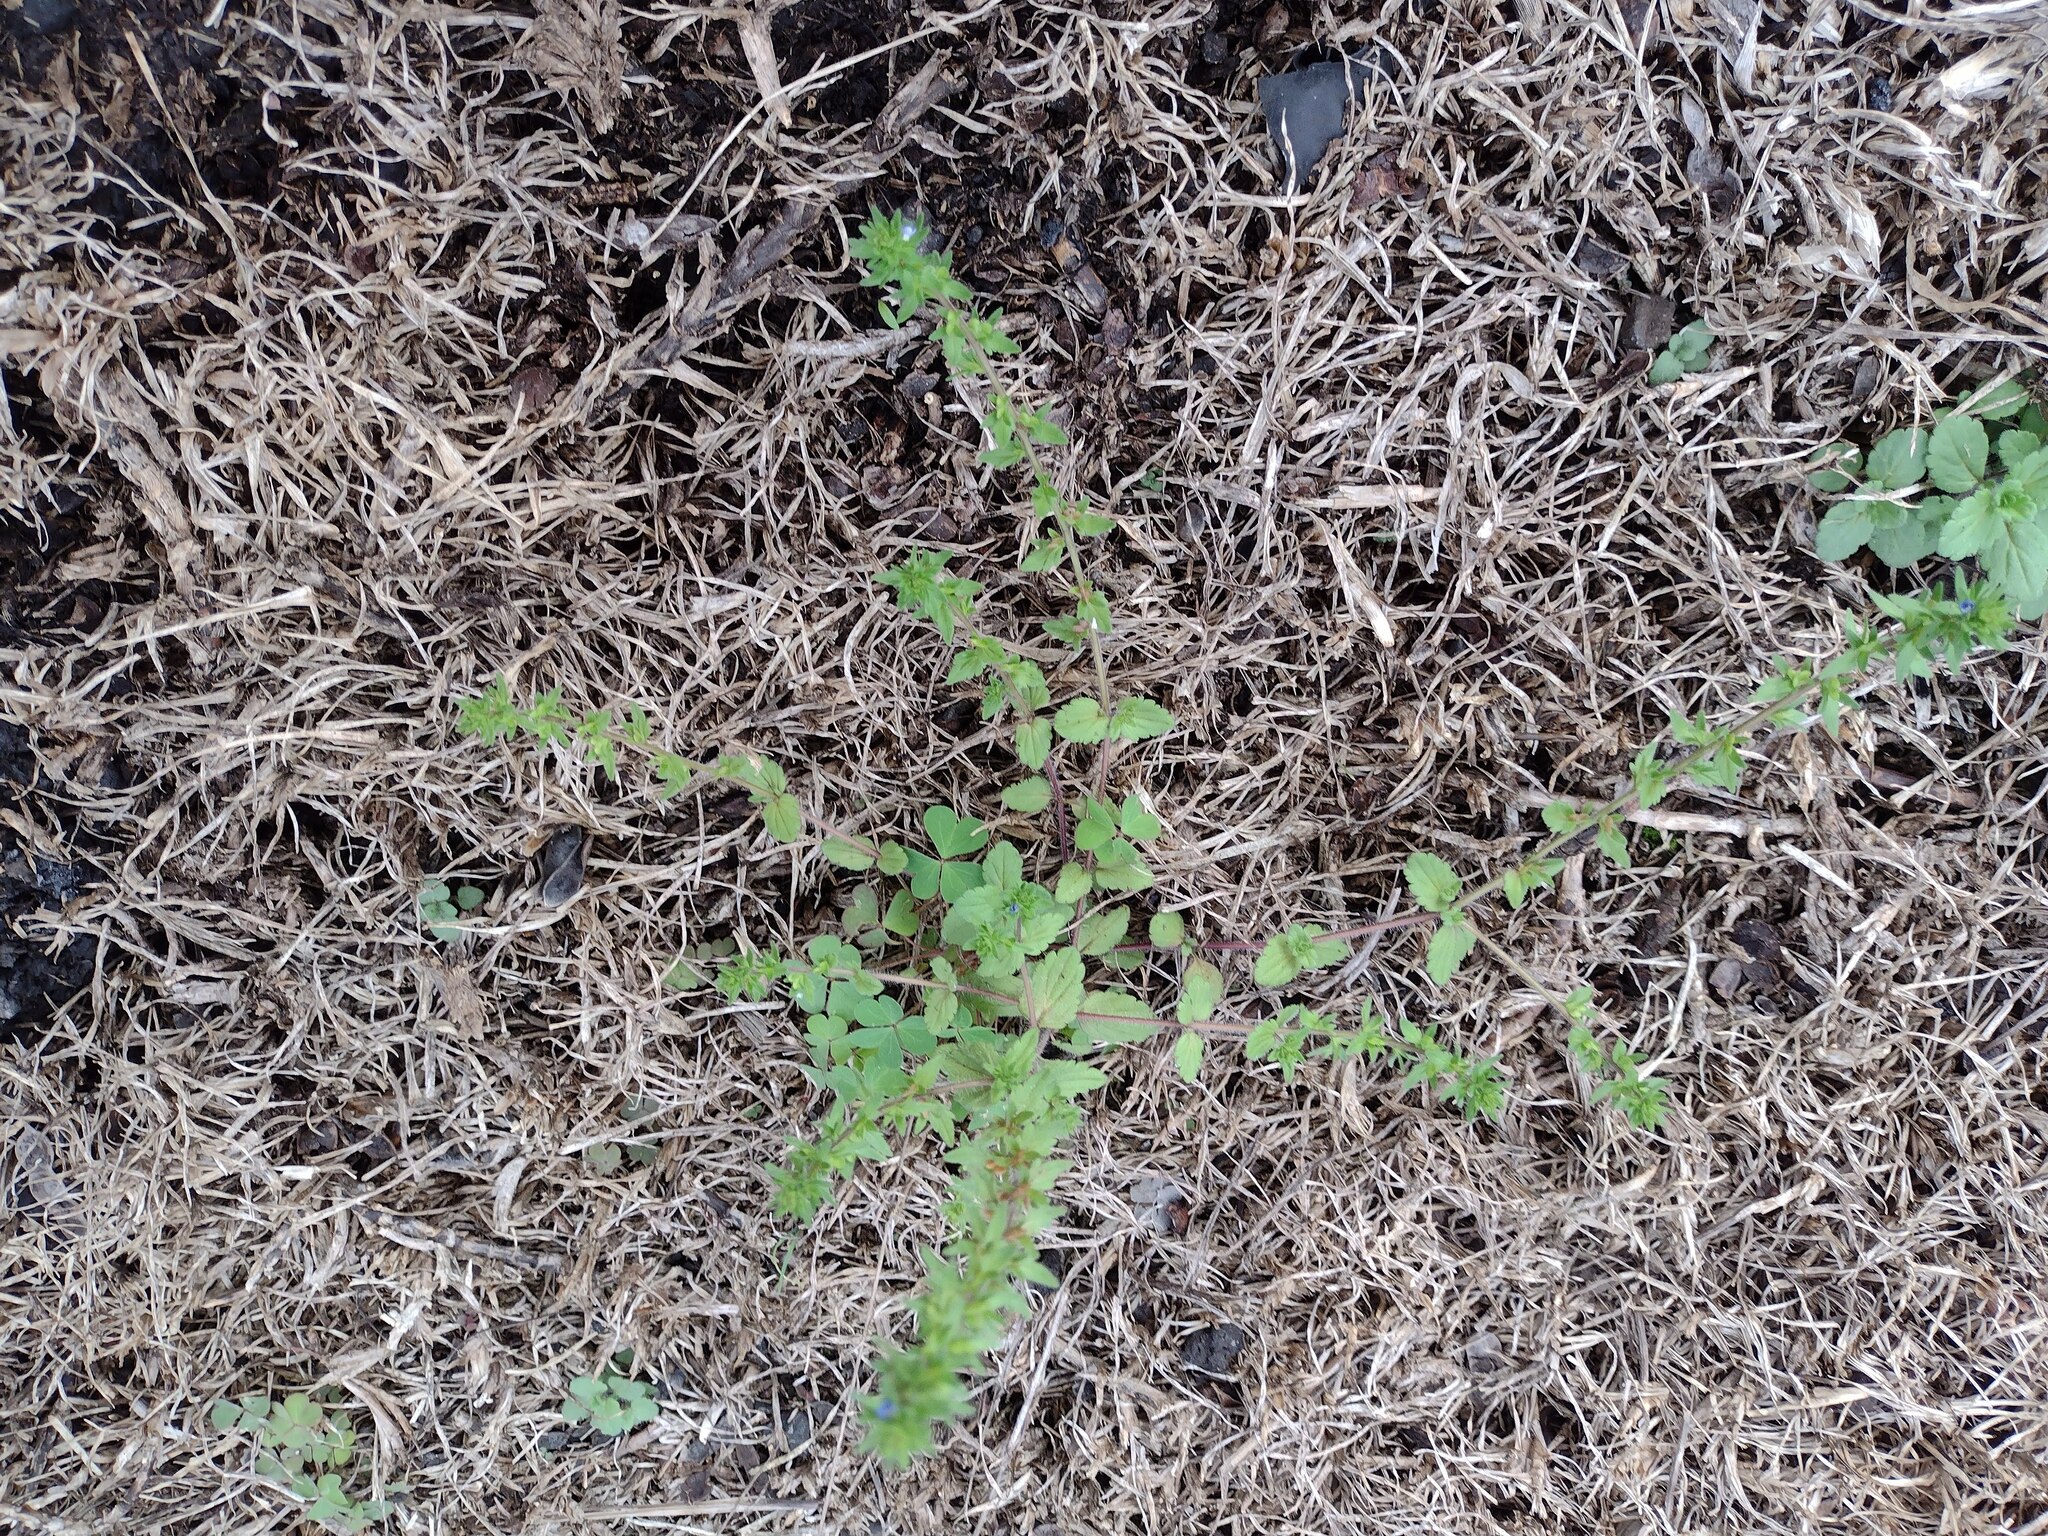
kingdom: Plantae
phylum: Tracheophyta
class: Magnoliopsida
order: Lamiales
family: Plantaginaceae
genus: Veronica
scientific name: Veronica arvensis
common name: Corn speedwell
